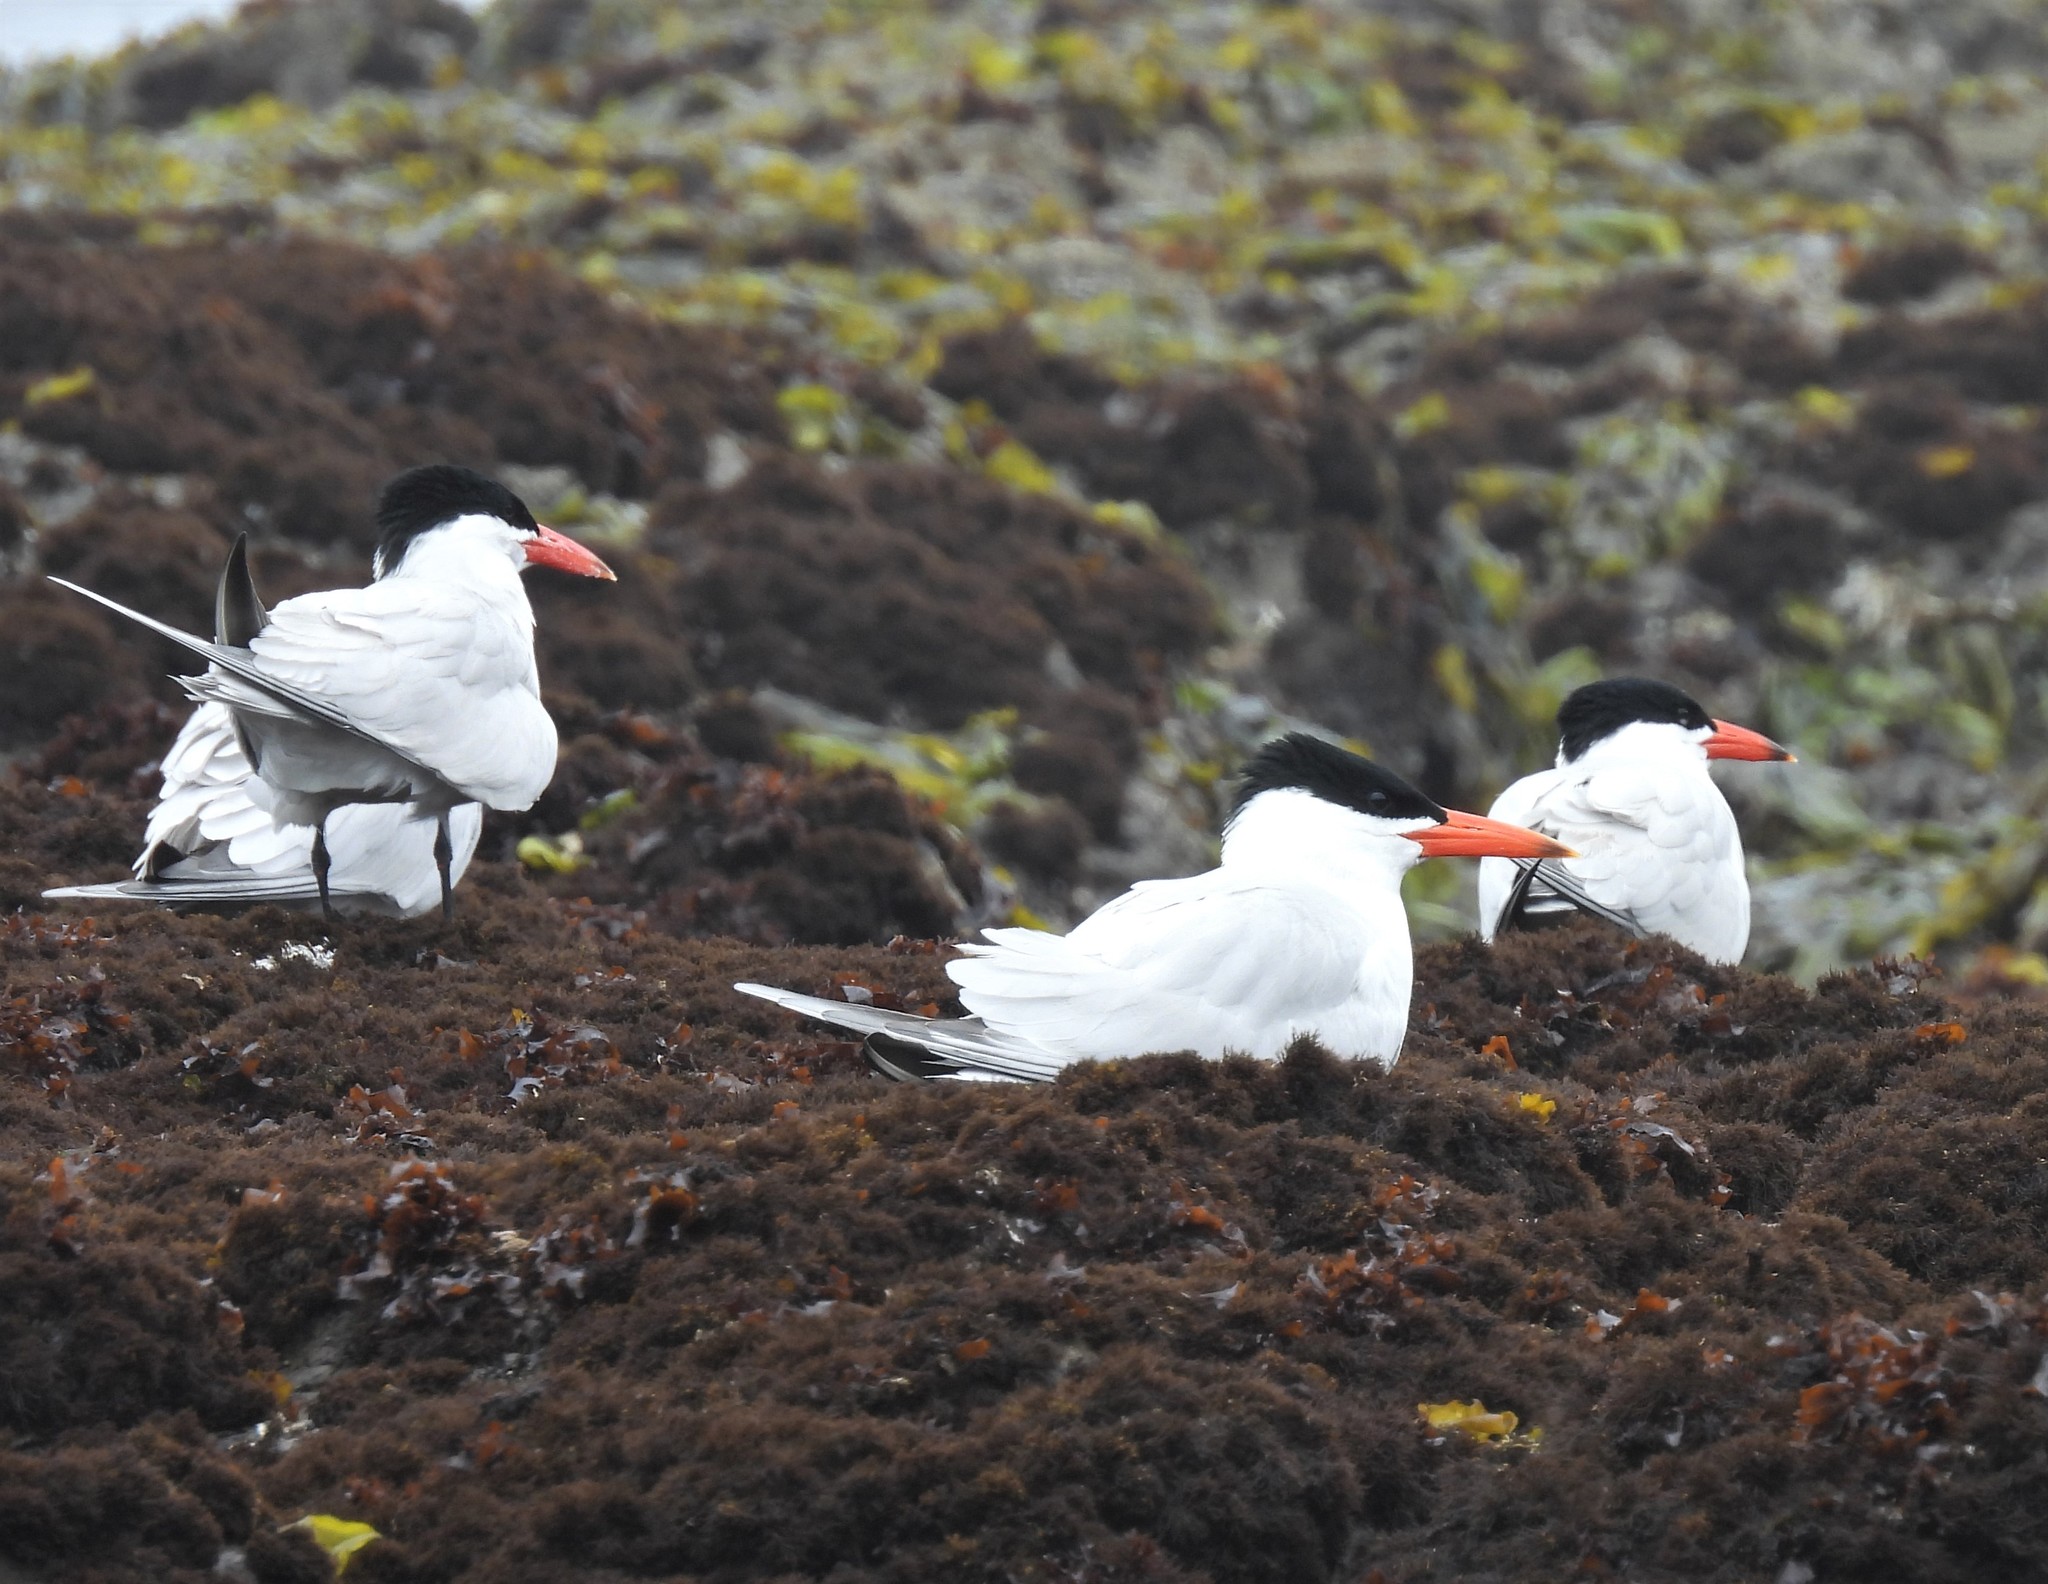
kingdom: Animalia
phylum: Chordata
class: Aves
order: Charadriiformes
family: Laridae
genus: Hydroprogne
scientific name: Hydroprogne caspia
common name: Caspian tern
